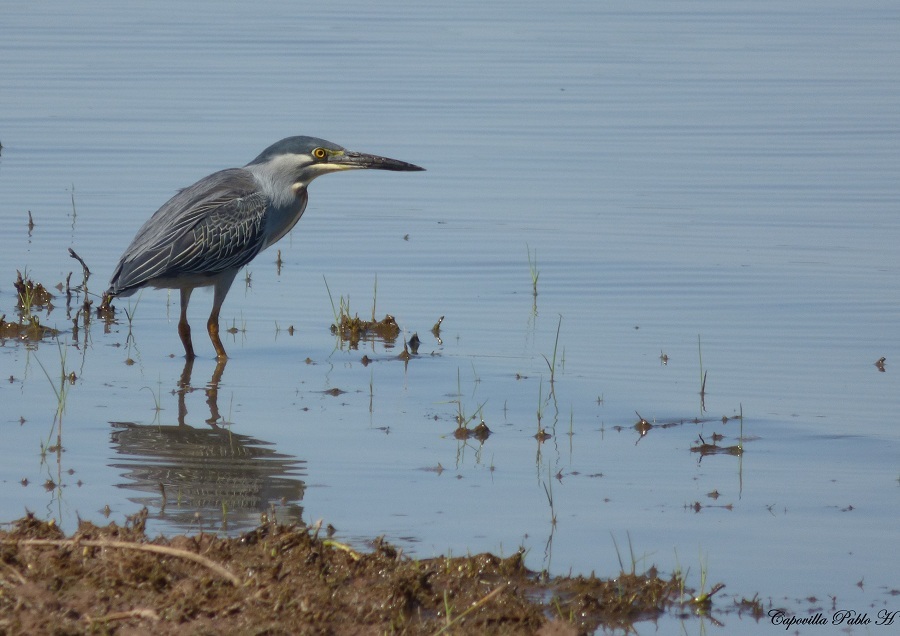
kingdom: Animalia
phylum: Chordata
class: Aves
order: Pelecaniformes
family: Ardeidae
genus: Butorides
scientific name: Butorides striata
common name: Striated heron
